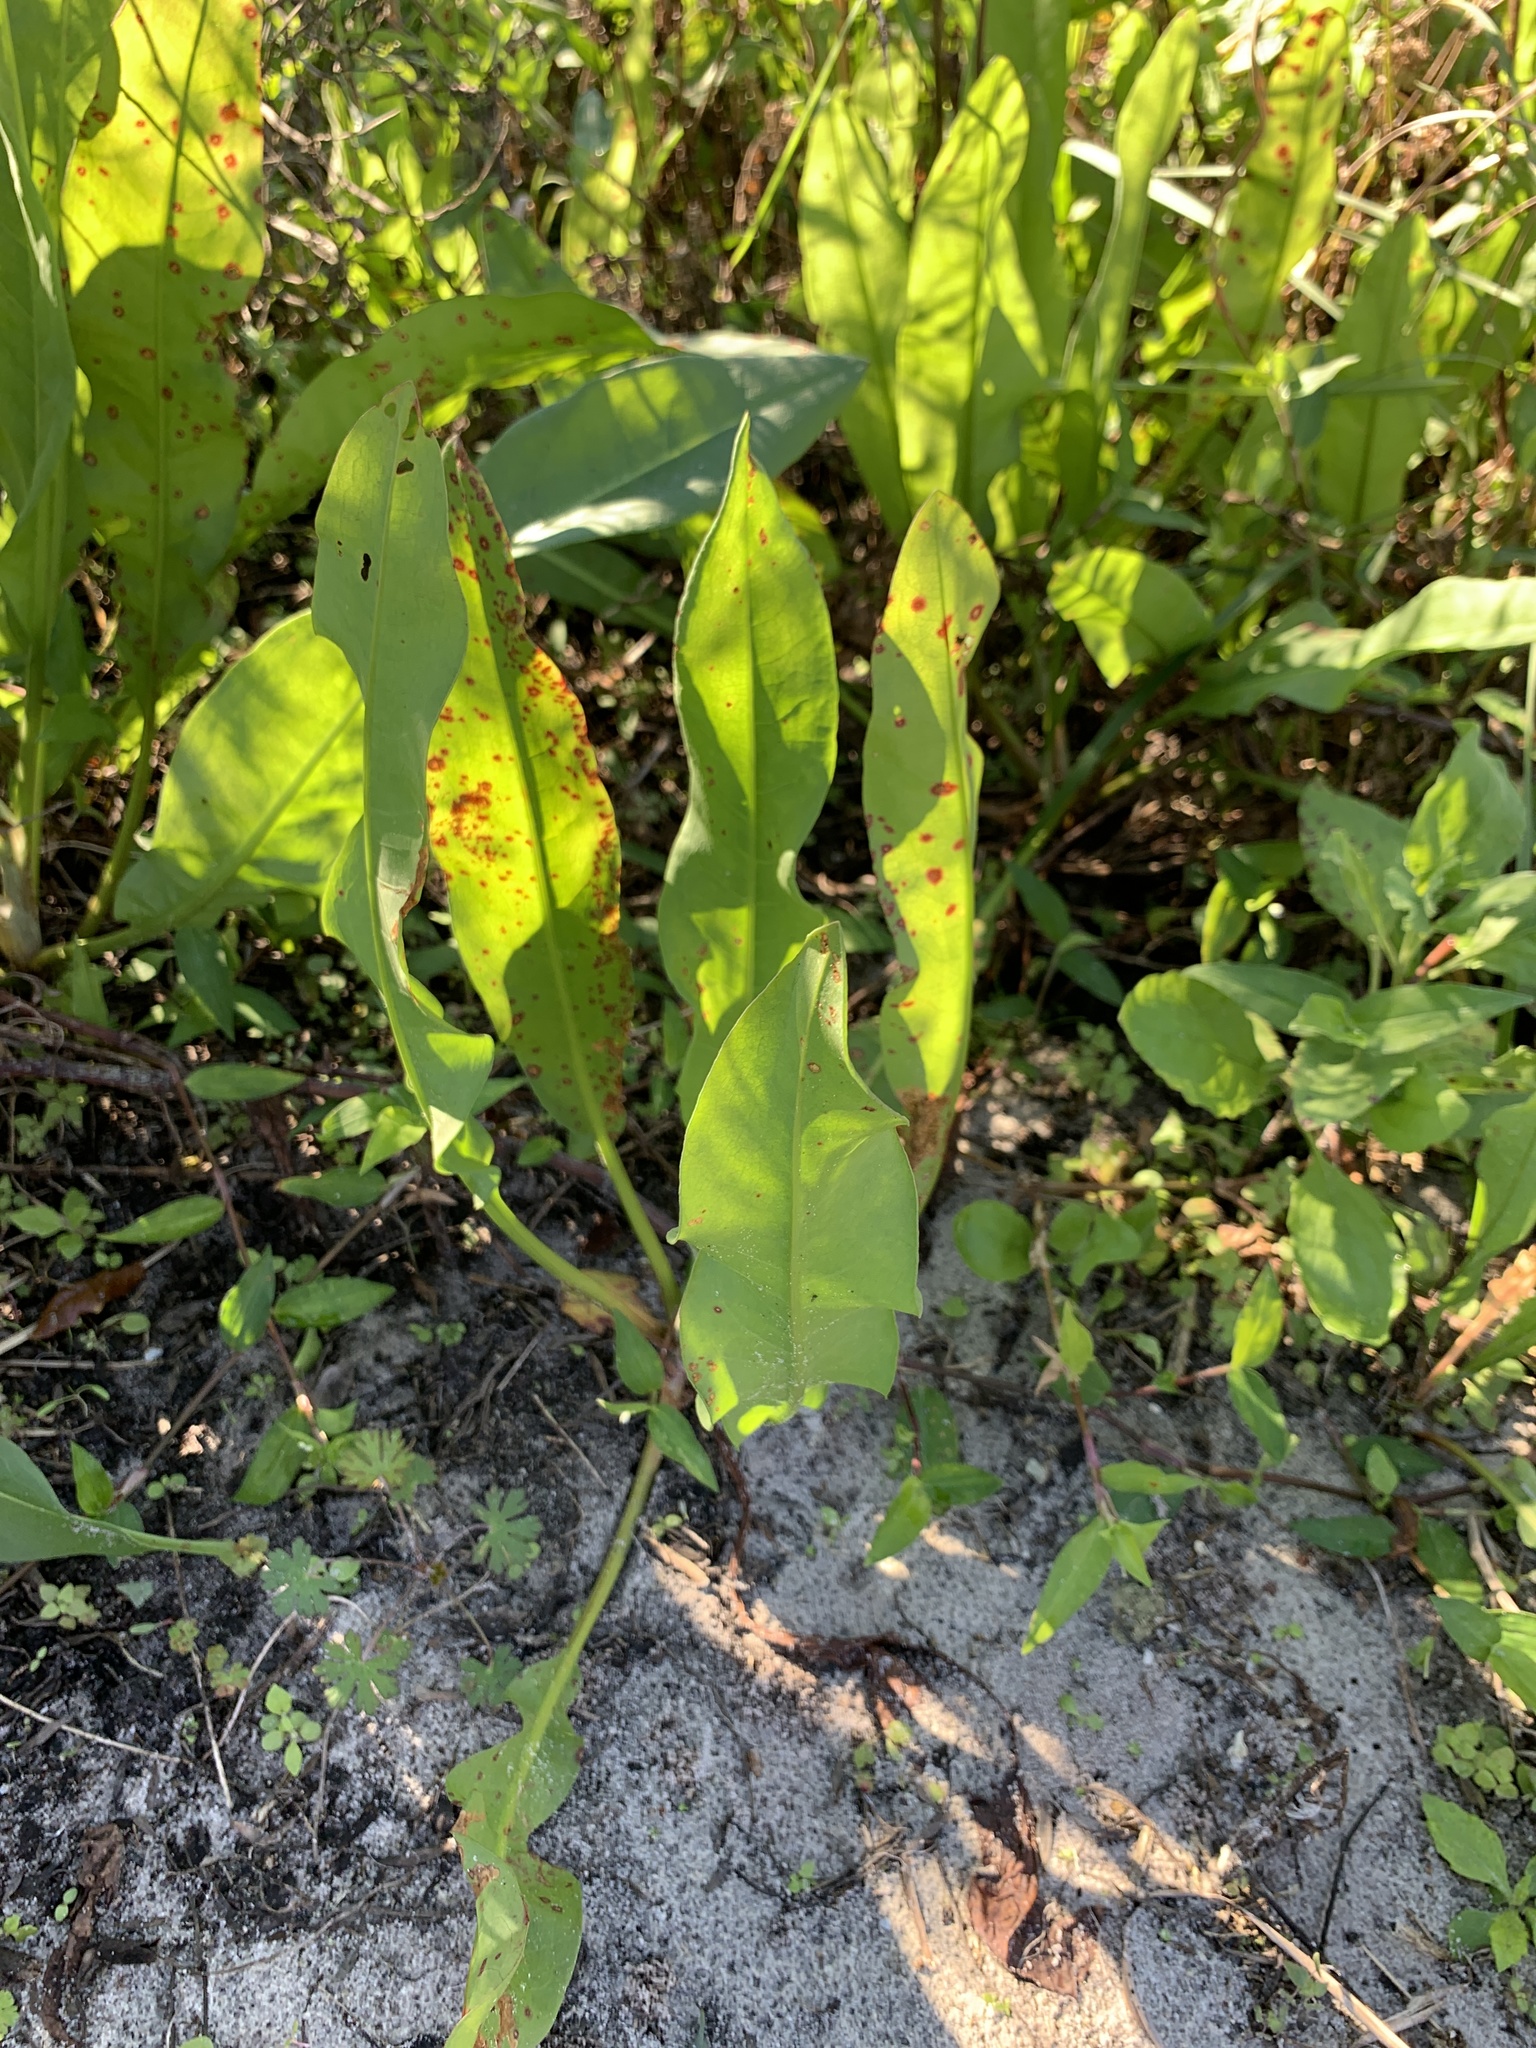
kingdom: Plantae
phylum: Tracheophyta
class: Magnoliopsida
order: Caryophyllales
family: Polygonaceae
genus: Rumex
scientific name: Rumex verticillatus
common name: Swamp dock
